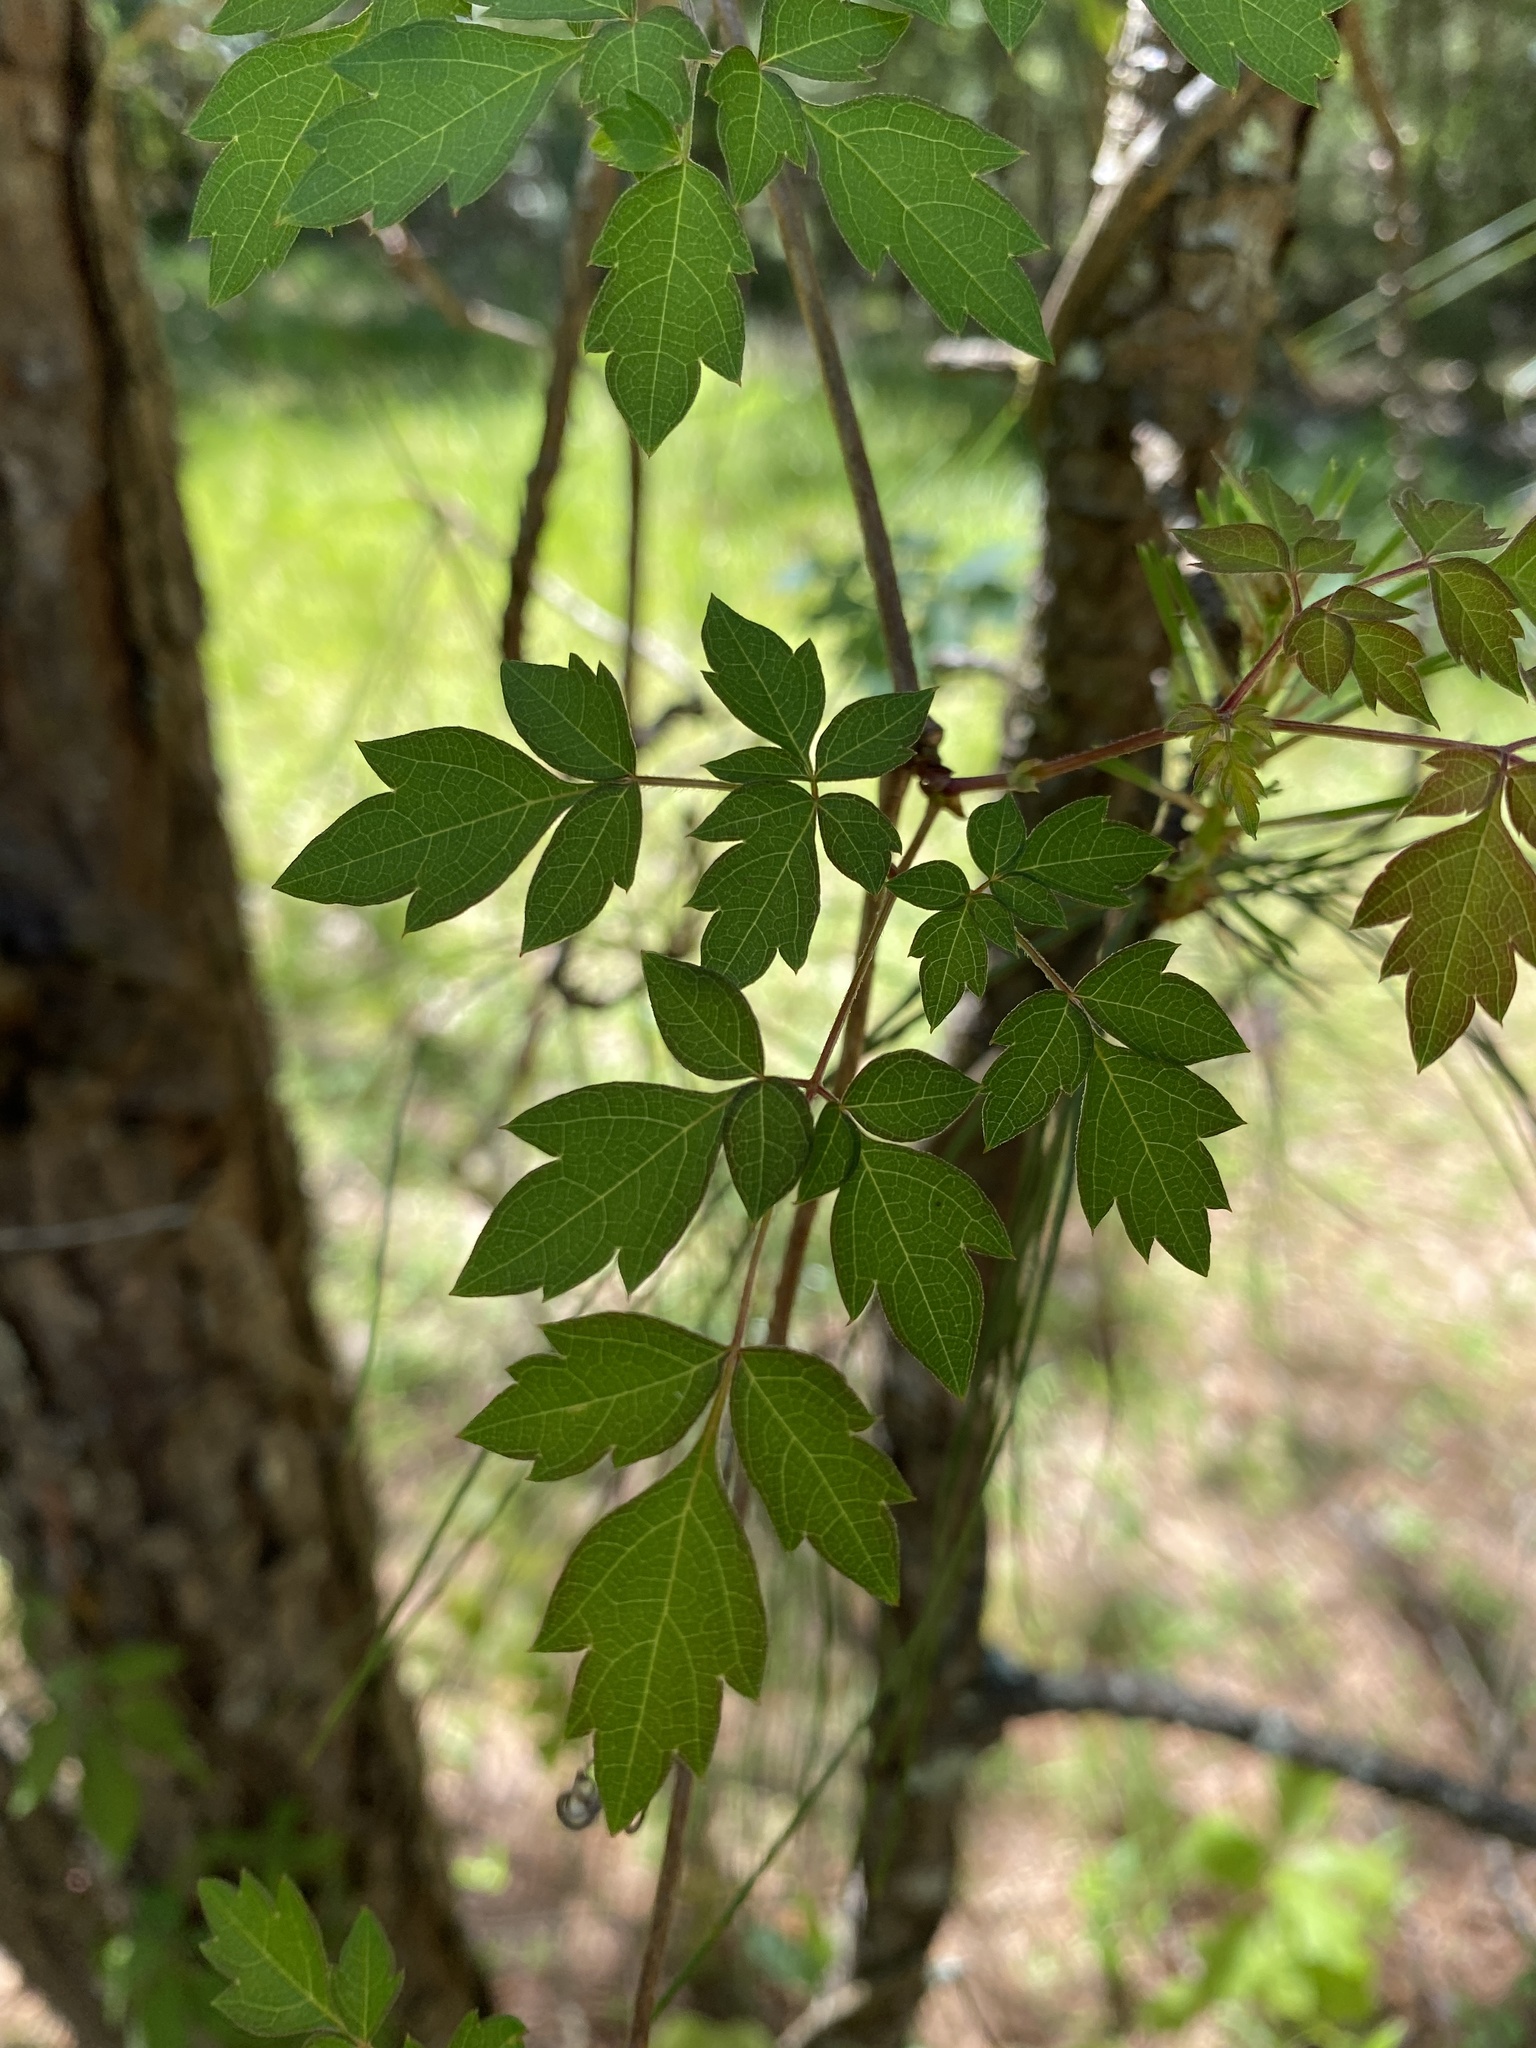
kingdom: Plantae
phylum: Tracheophyta
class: Magnoliopsida
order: Vitales
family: Vitaceae
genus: Nekemias
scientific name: Nekemias arborea
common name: Peppervine
